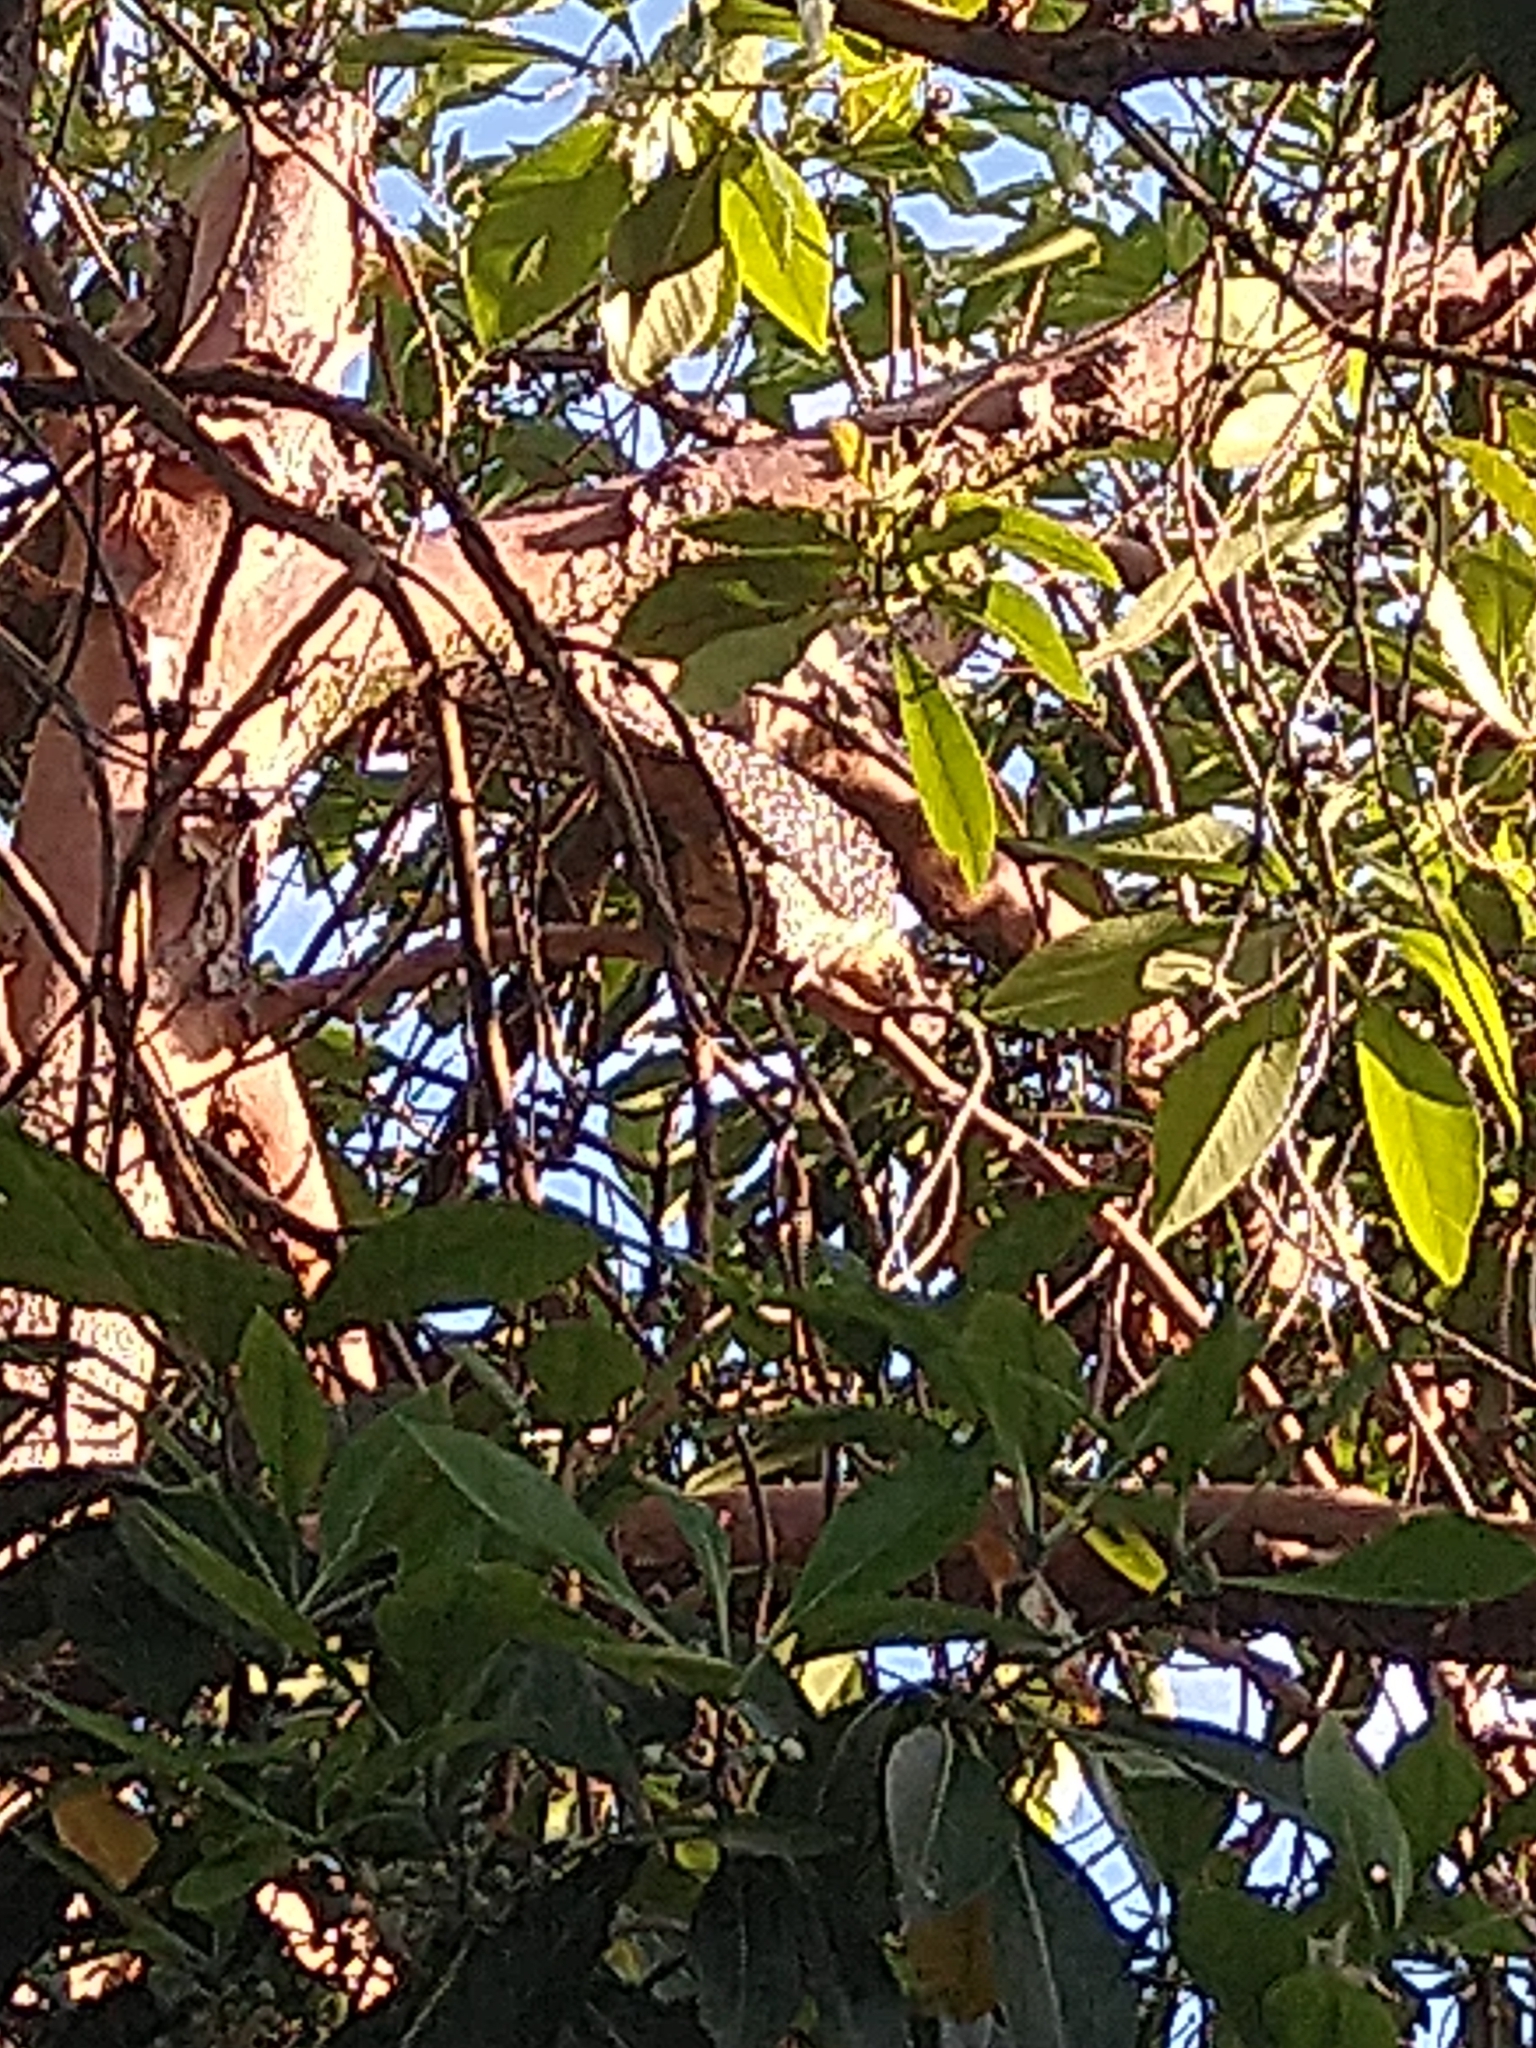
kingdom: Animalia
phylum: Chordata
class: Aves
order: Cuculiformes
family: Cuculidae
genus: Eudynamys
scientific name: Eudynamys orientalis
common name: Pacific koel
